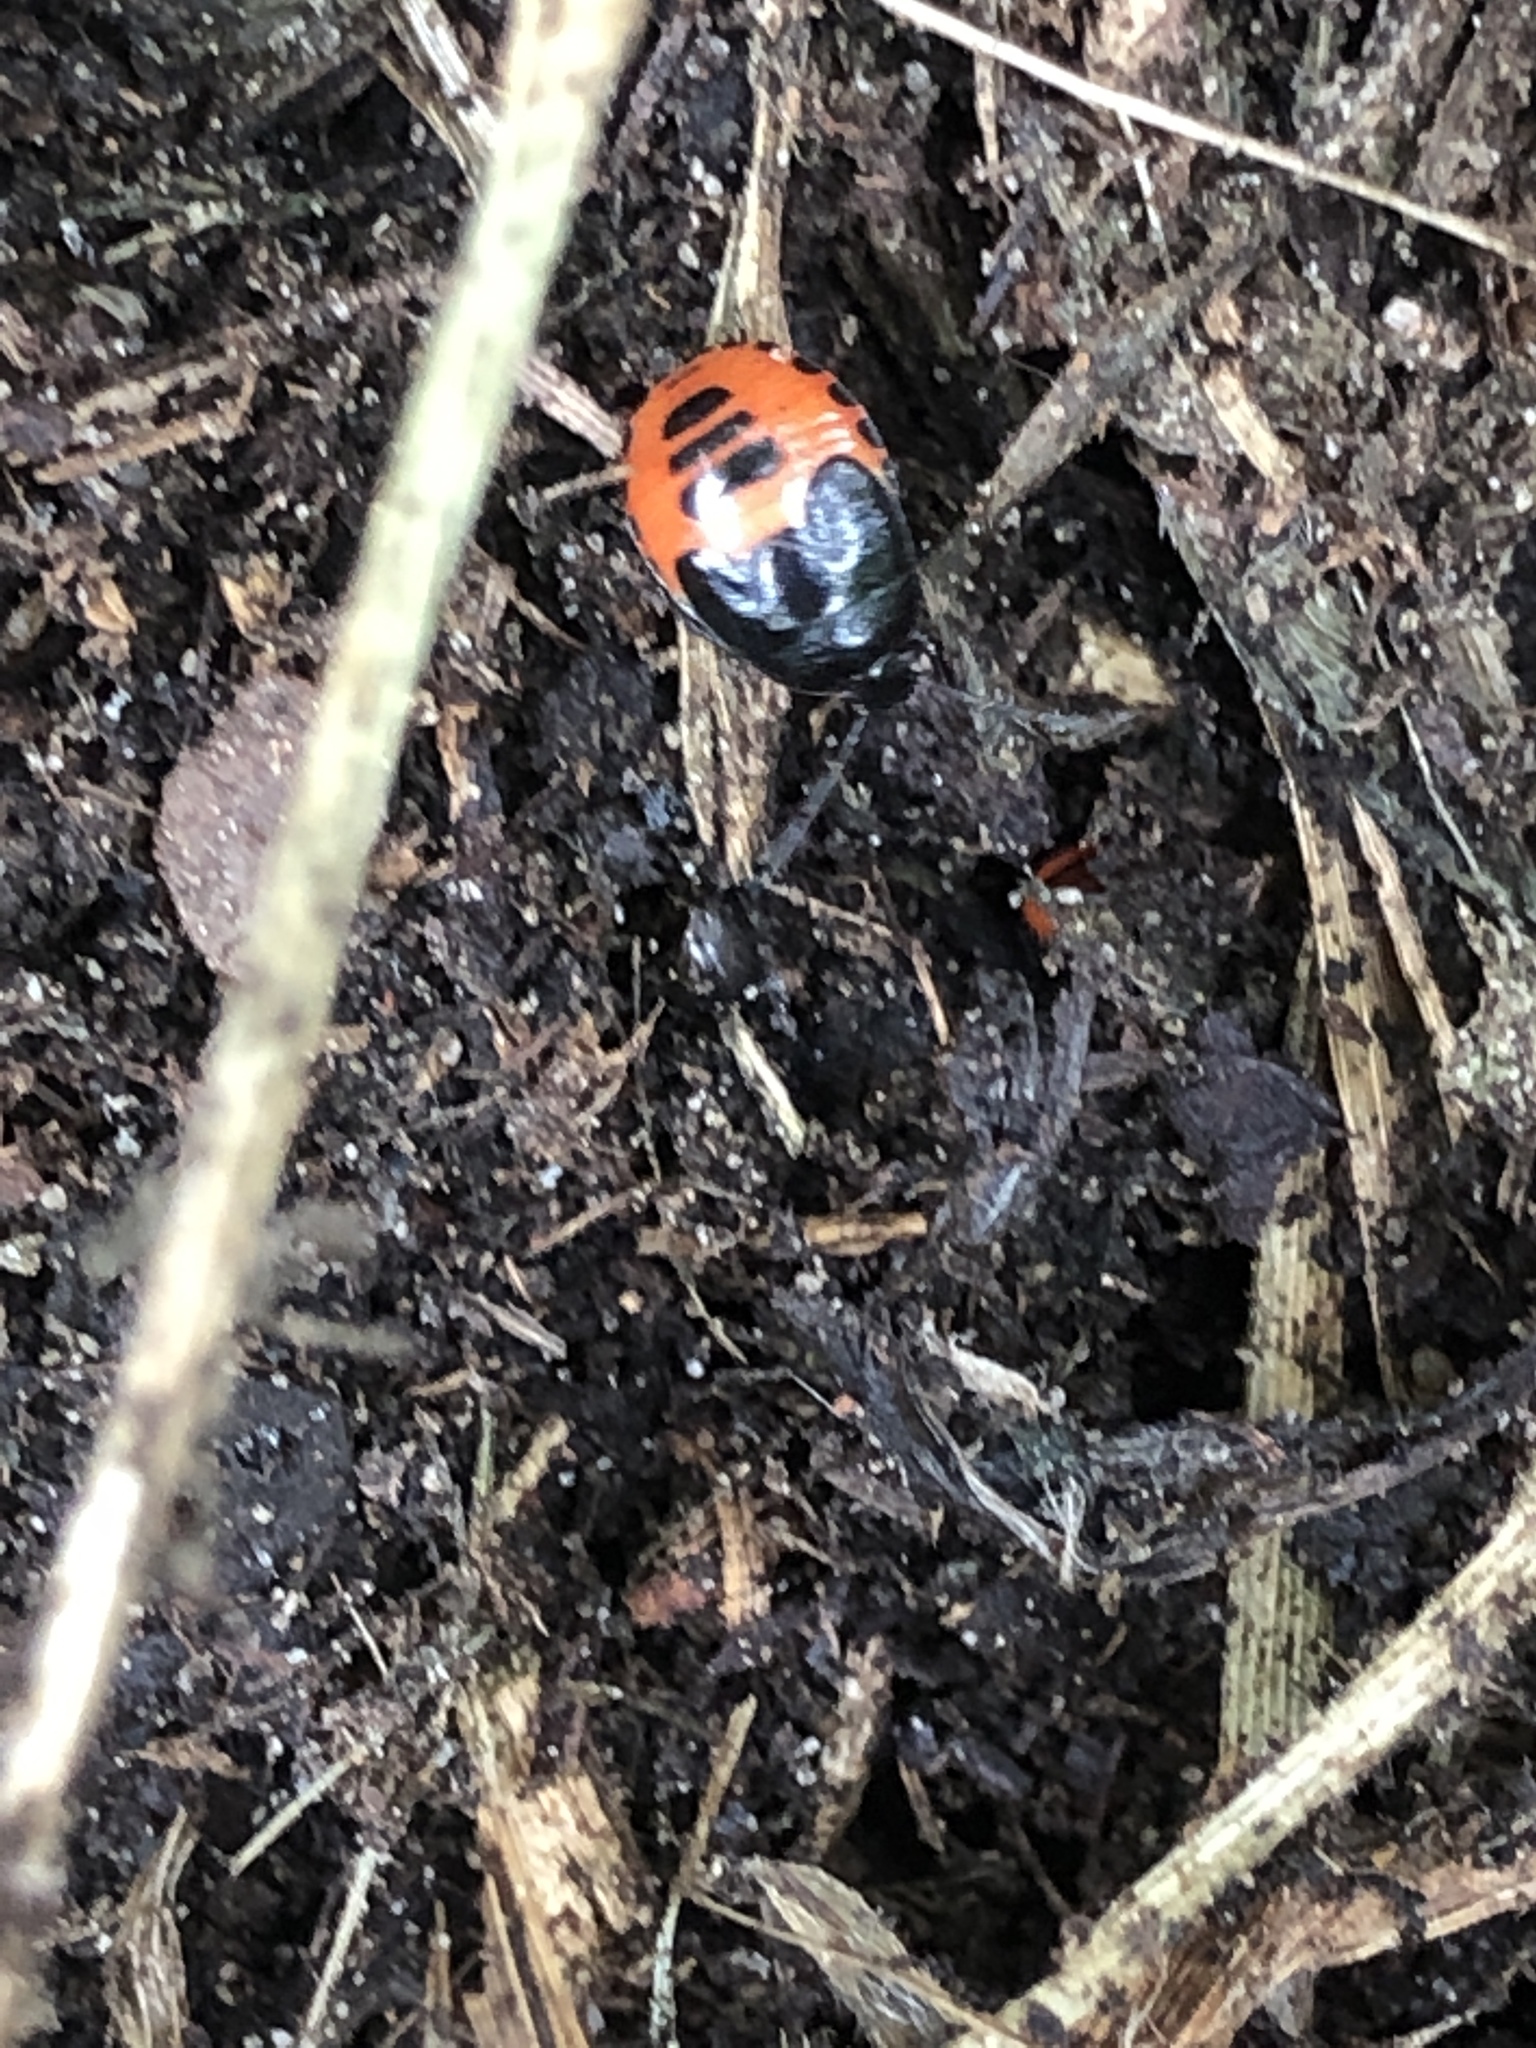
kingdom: Animalia
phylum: Arthropoda
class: Insecta
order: Hemiptera
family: Cydnidae
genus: Sehirus
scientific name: Sehirus cinctus
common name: White-margined burrower bug
